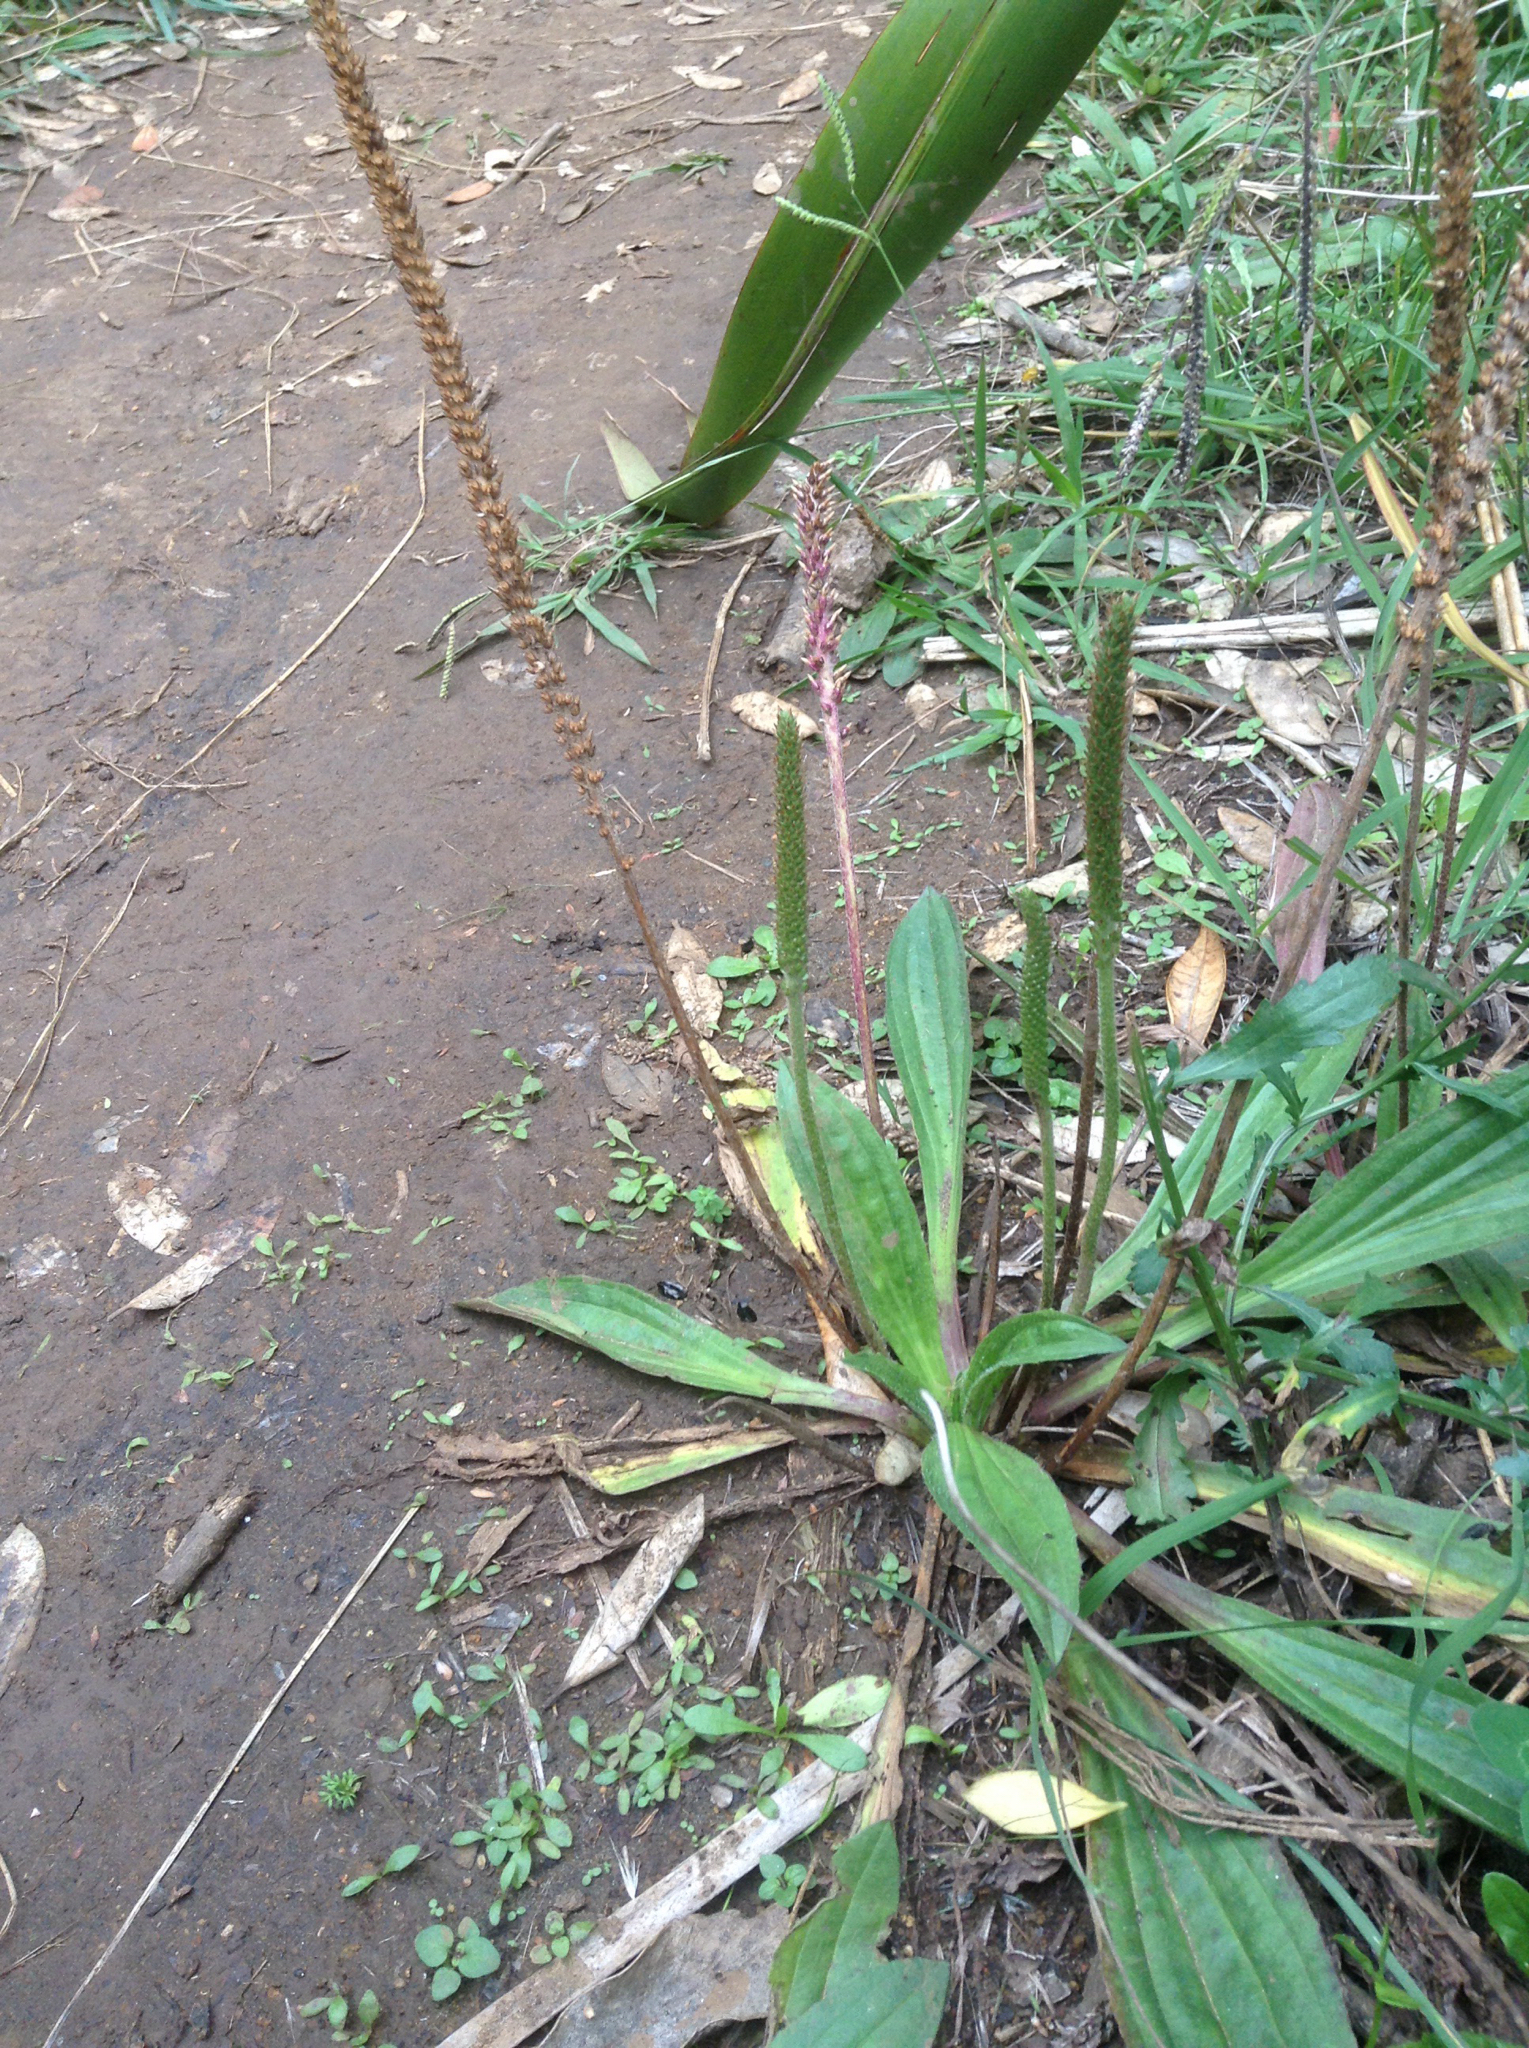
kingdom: Plantae
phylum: Tracheophyta
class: Magnoliopsida
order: Lamiales
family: Plantaginaceae
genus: Plantago
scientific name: Plantago australis
